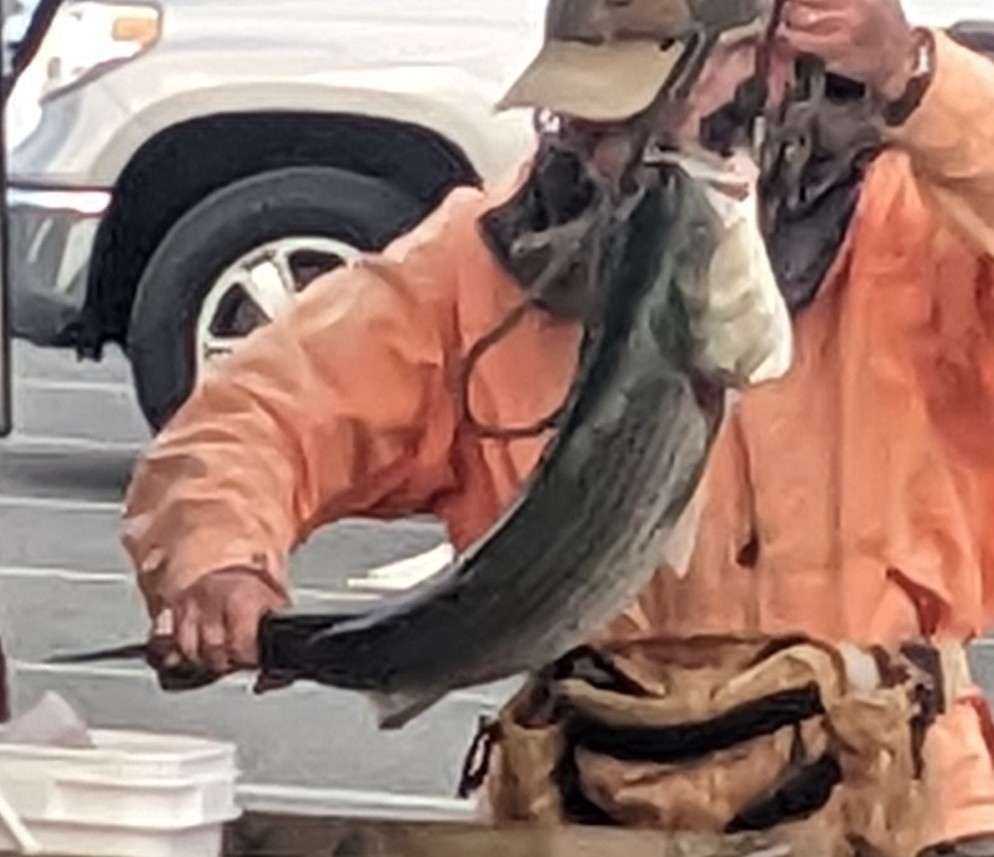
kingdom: Animalia
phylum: Chordata
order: Perciformes
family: Moronidae
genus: Morone
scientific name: Morone saxatilis
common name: Striped bass
